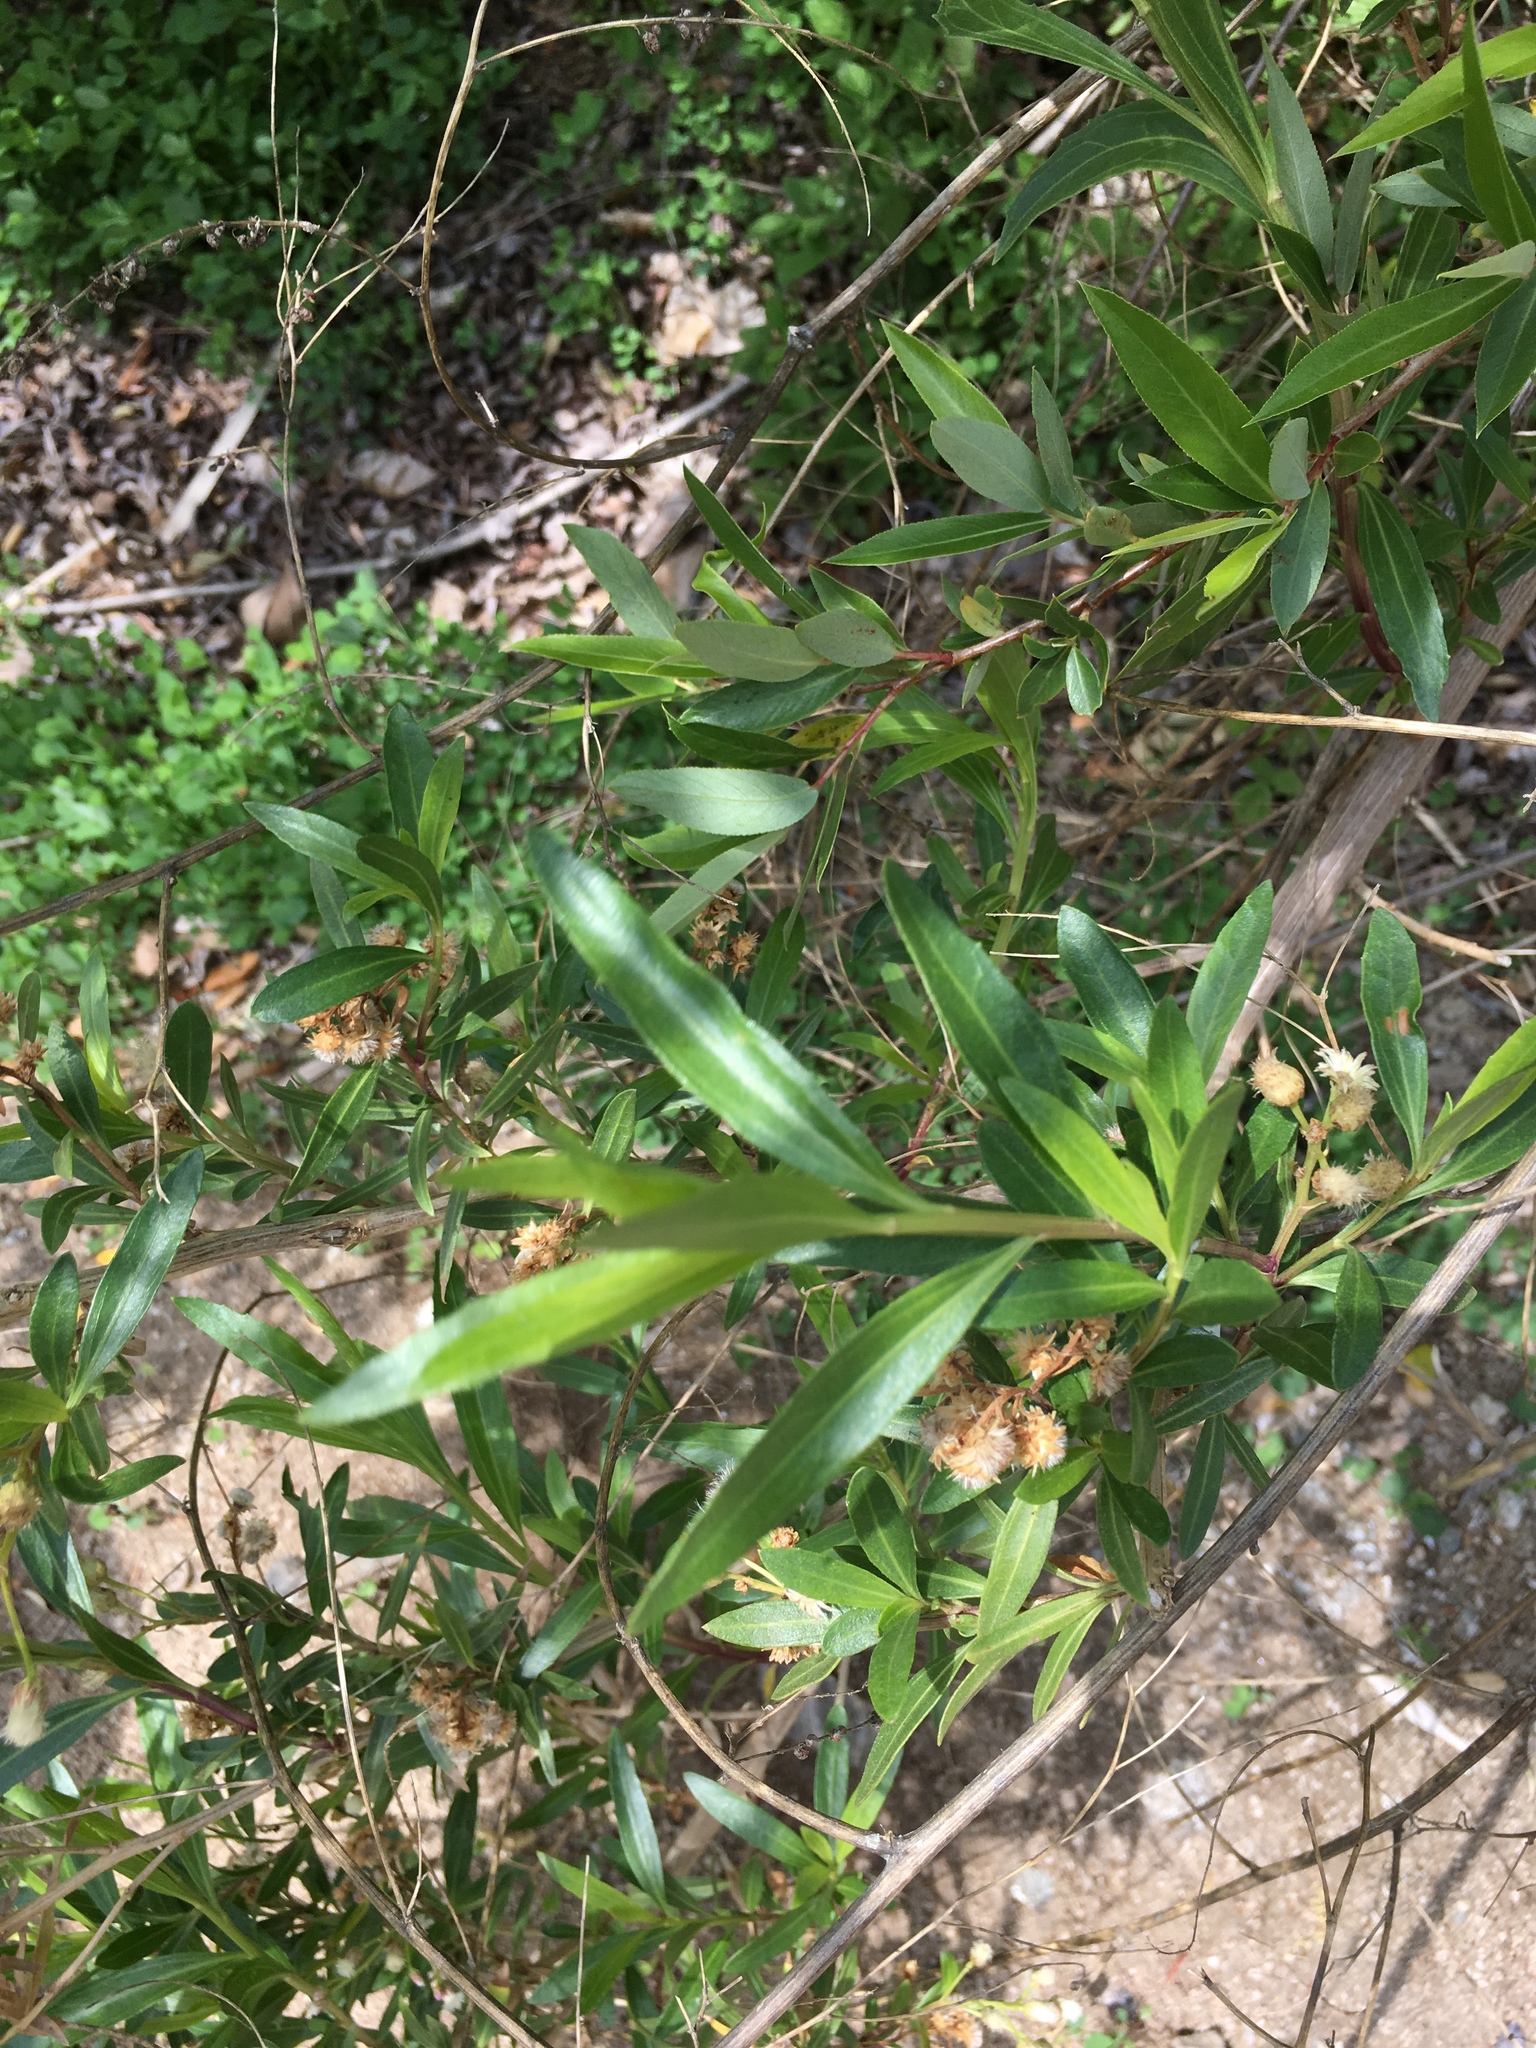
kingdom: Plantae
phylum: Tracheophyta
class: Magnoliopsida
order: Asterales
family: Asteraceae
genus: Baccharis
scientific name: Baccharis salicifolia
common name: Sticky baccharis
